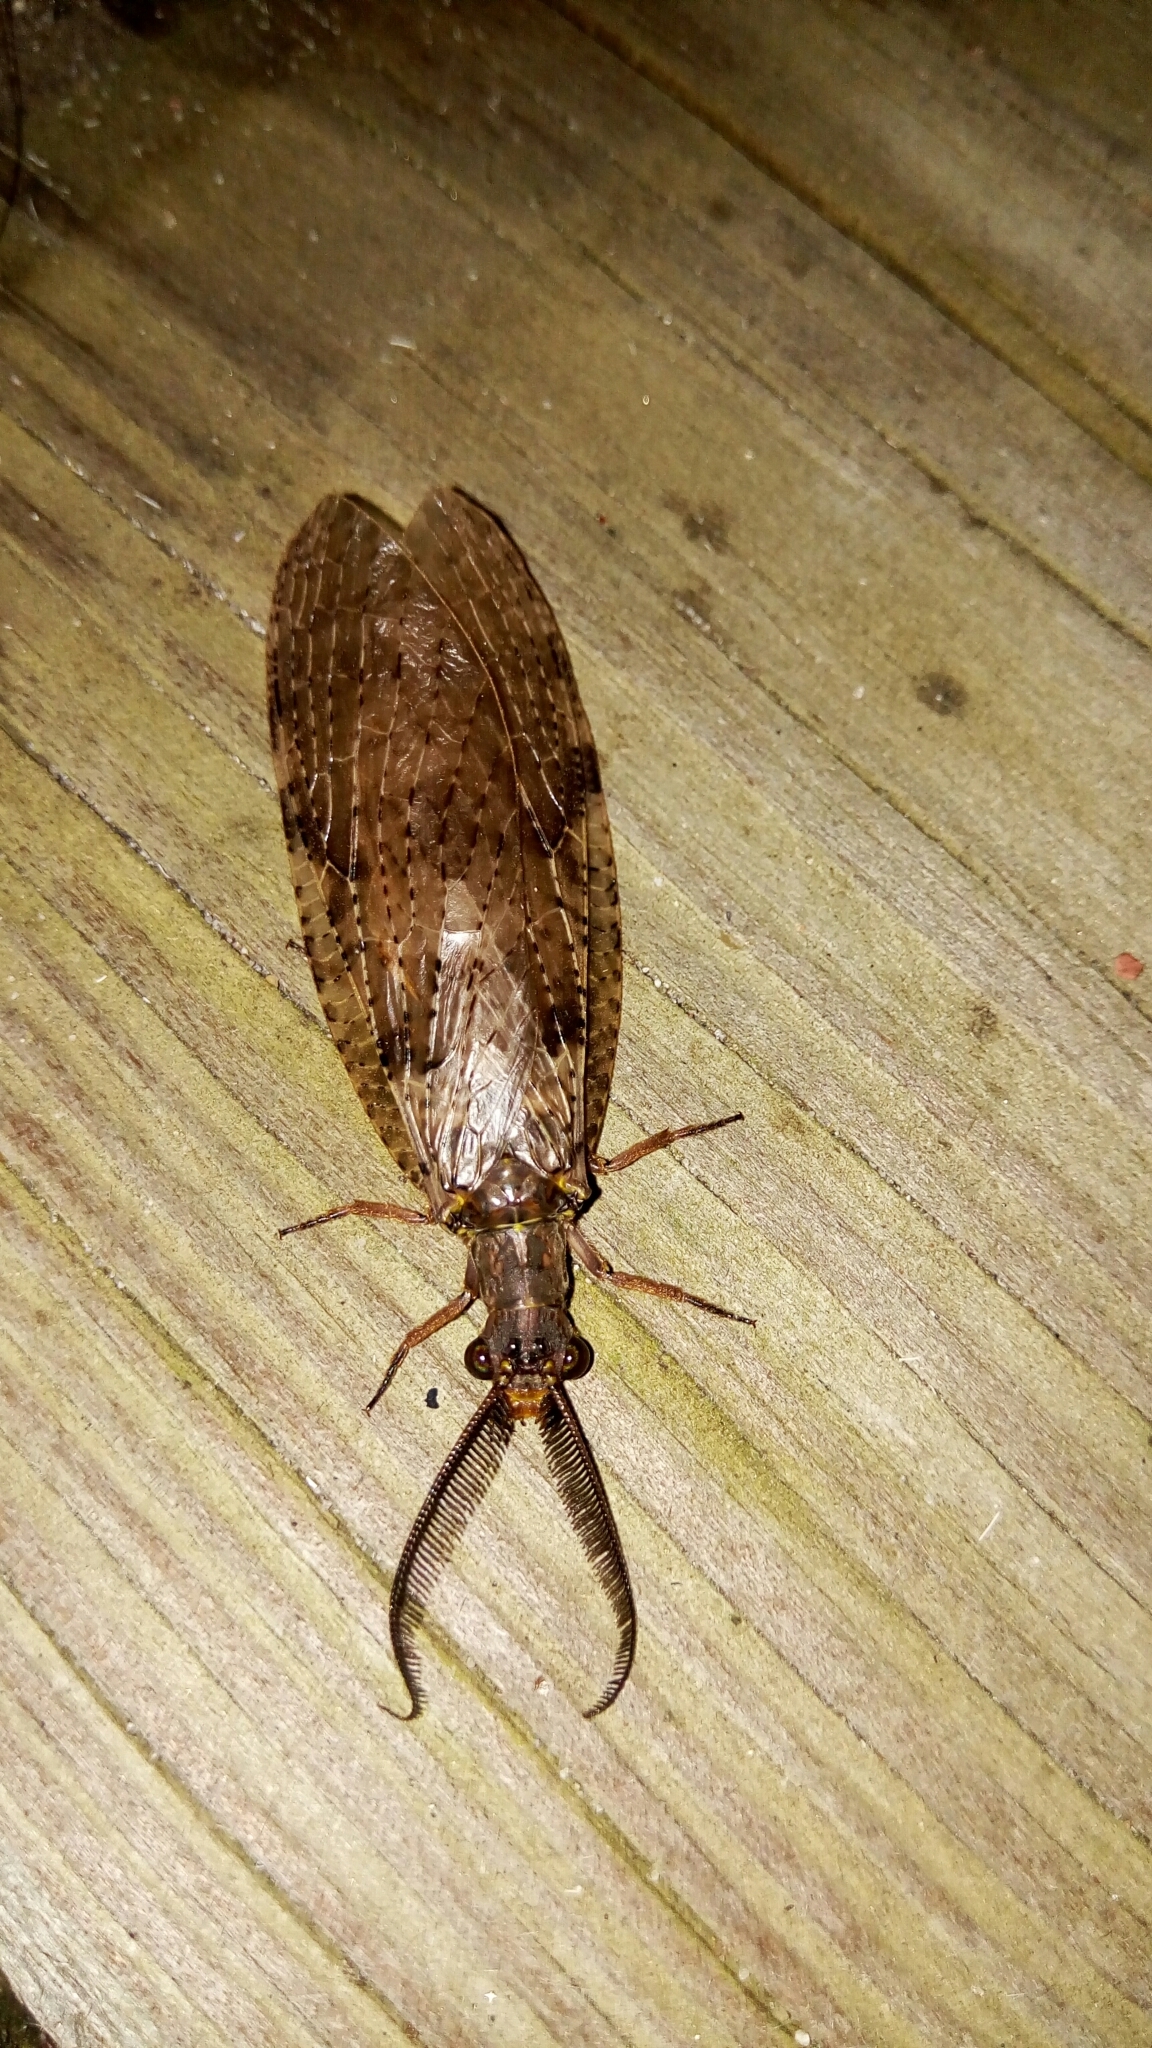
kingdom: Animalia
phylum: Arthropoda
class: Insecta
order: Megaloptera
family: Corydalidae
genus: Chauliodes
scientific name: Chauliodes pectinicornis
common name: Summer fishfly
